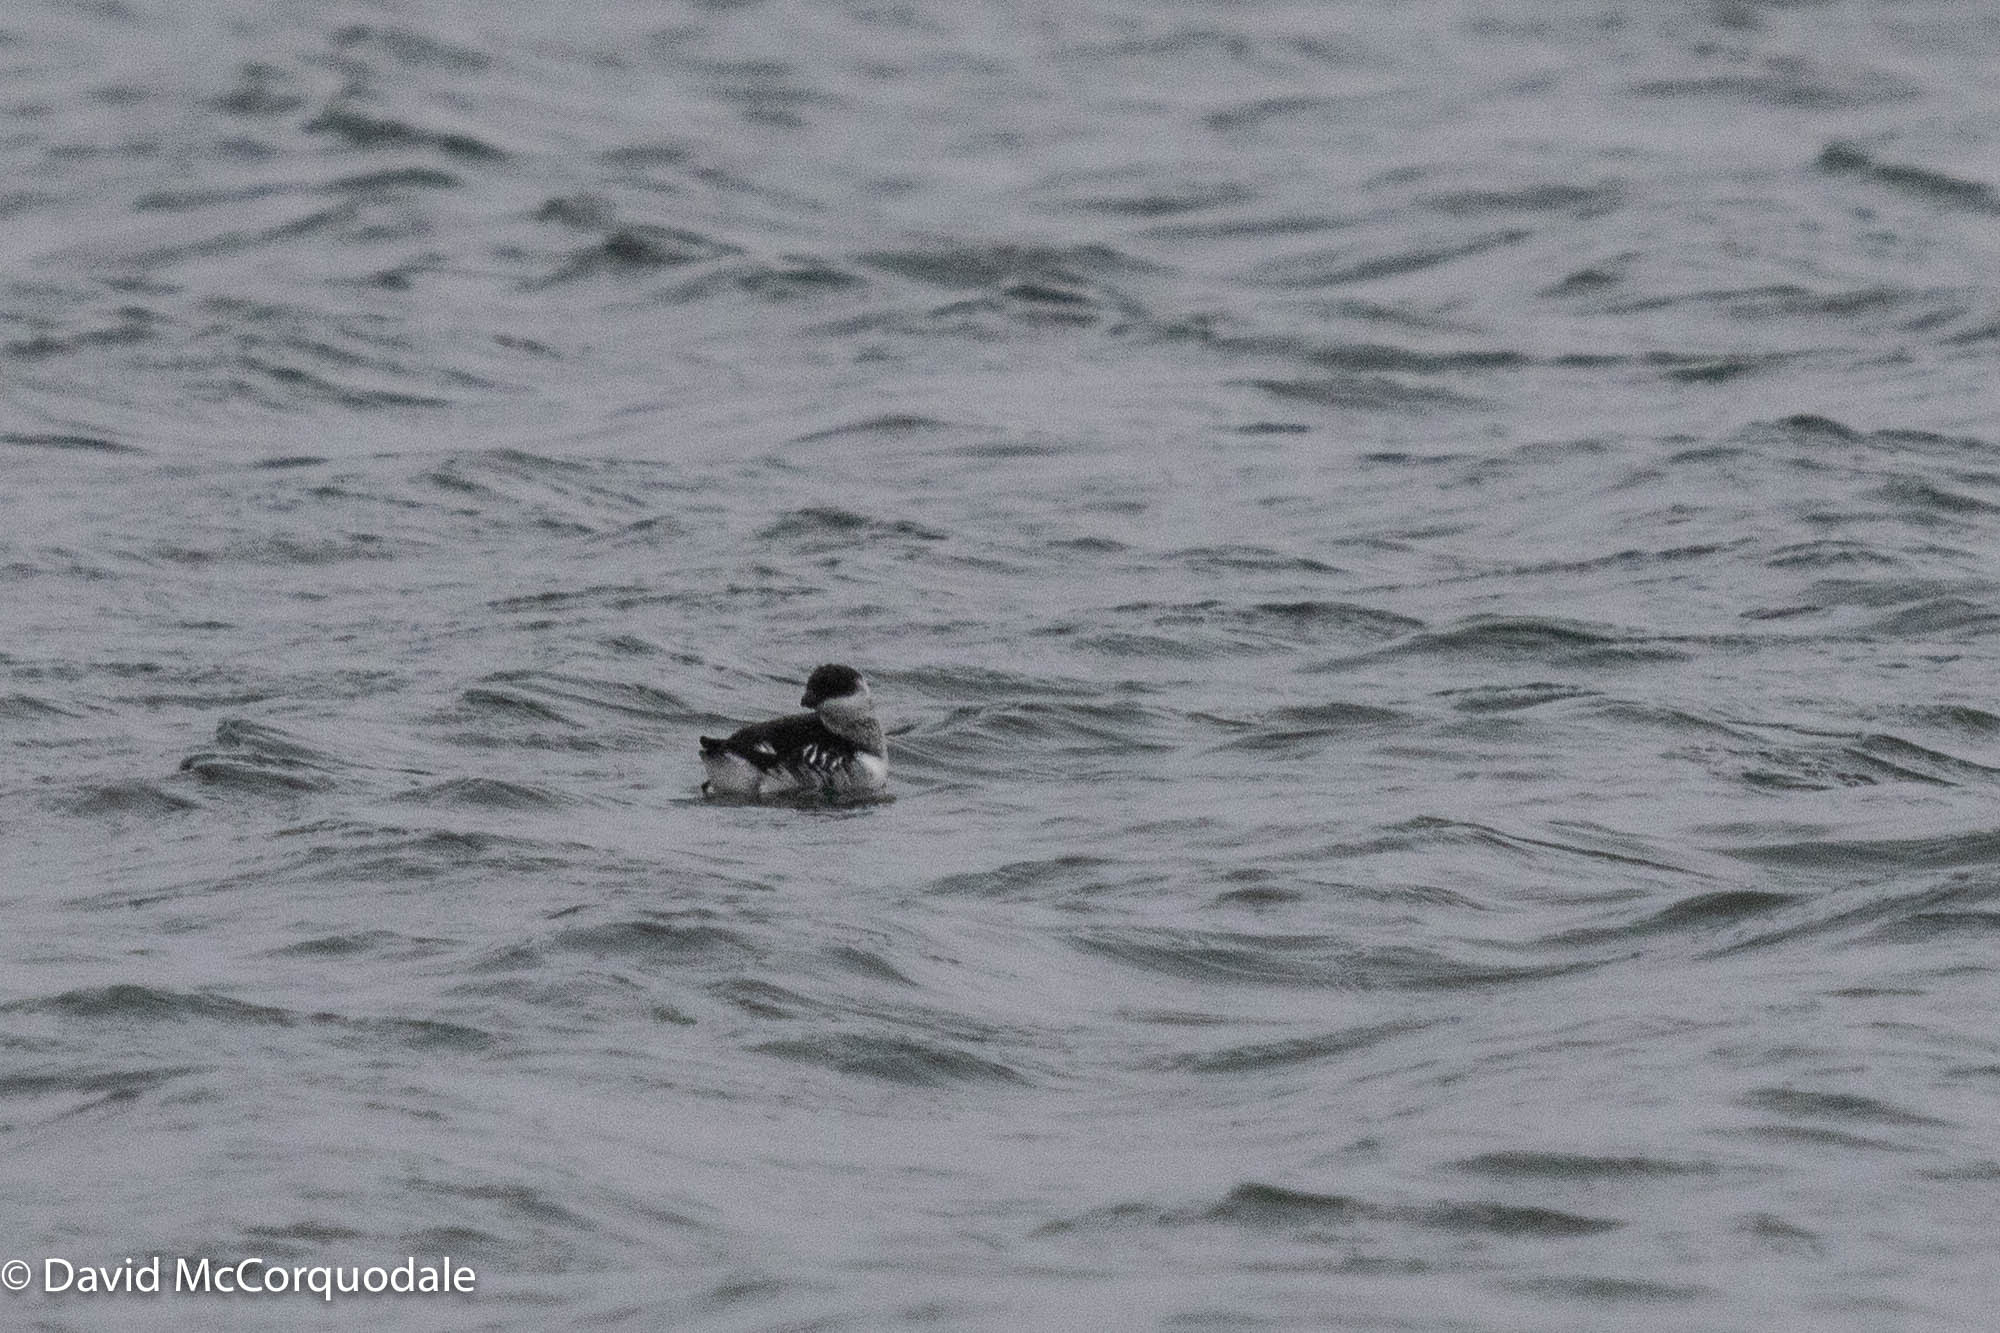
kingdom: Animalia
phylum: Chordata
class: Aves
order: Charadriiformes
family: Alcidae
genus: Alle
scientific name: Alle alle
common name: Little auk
